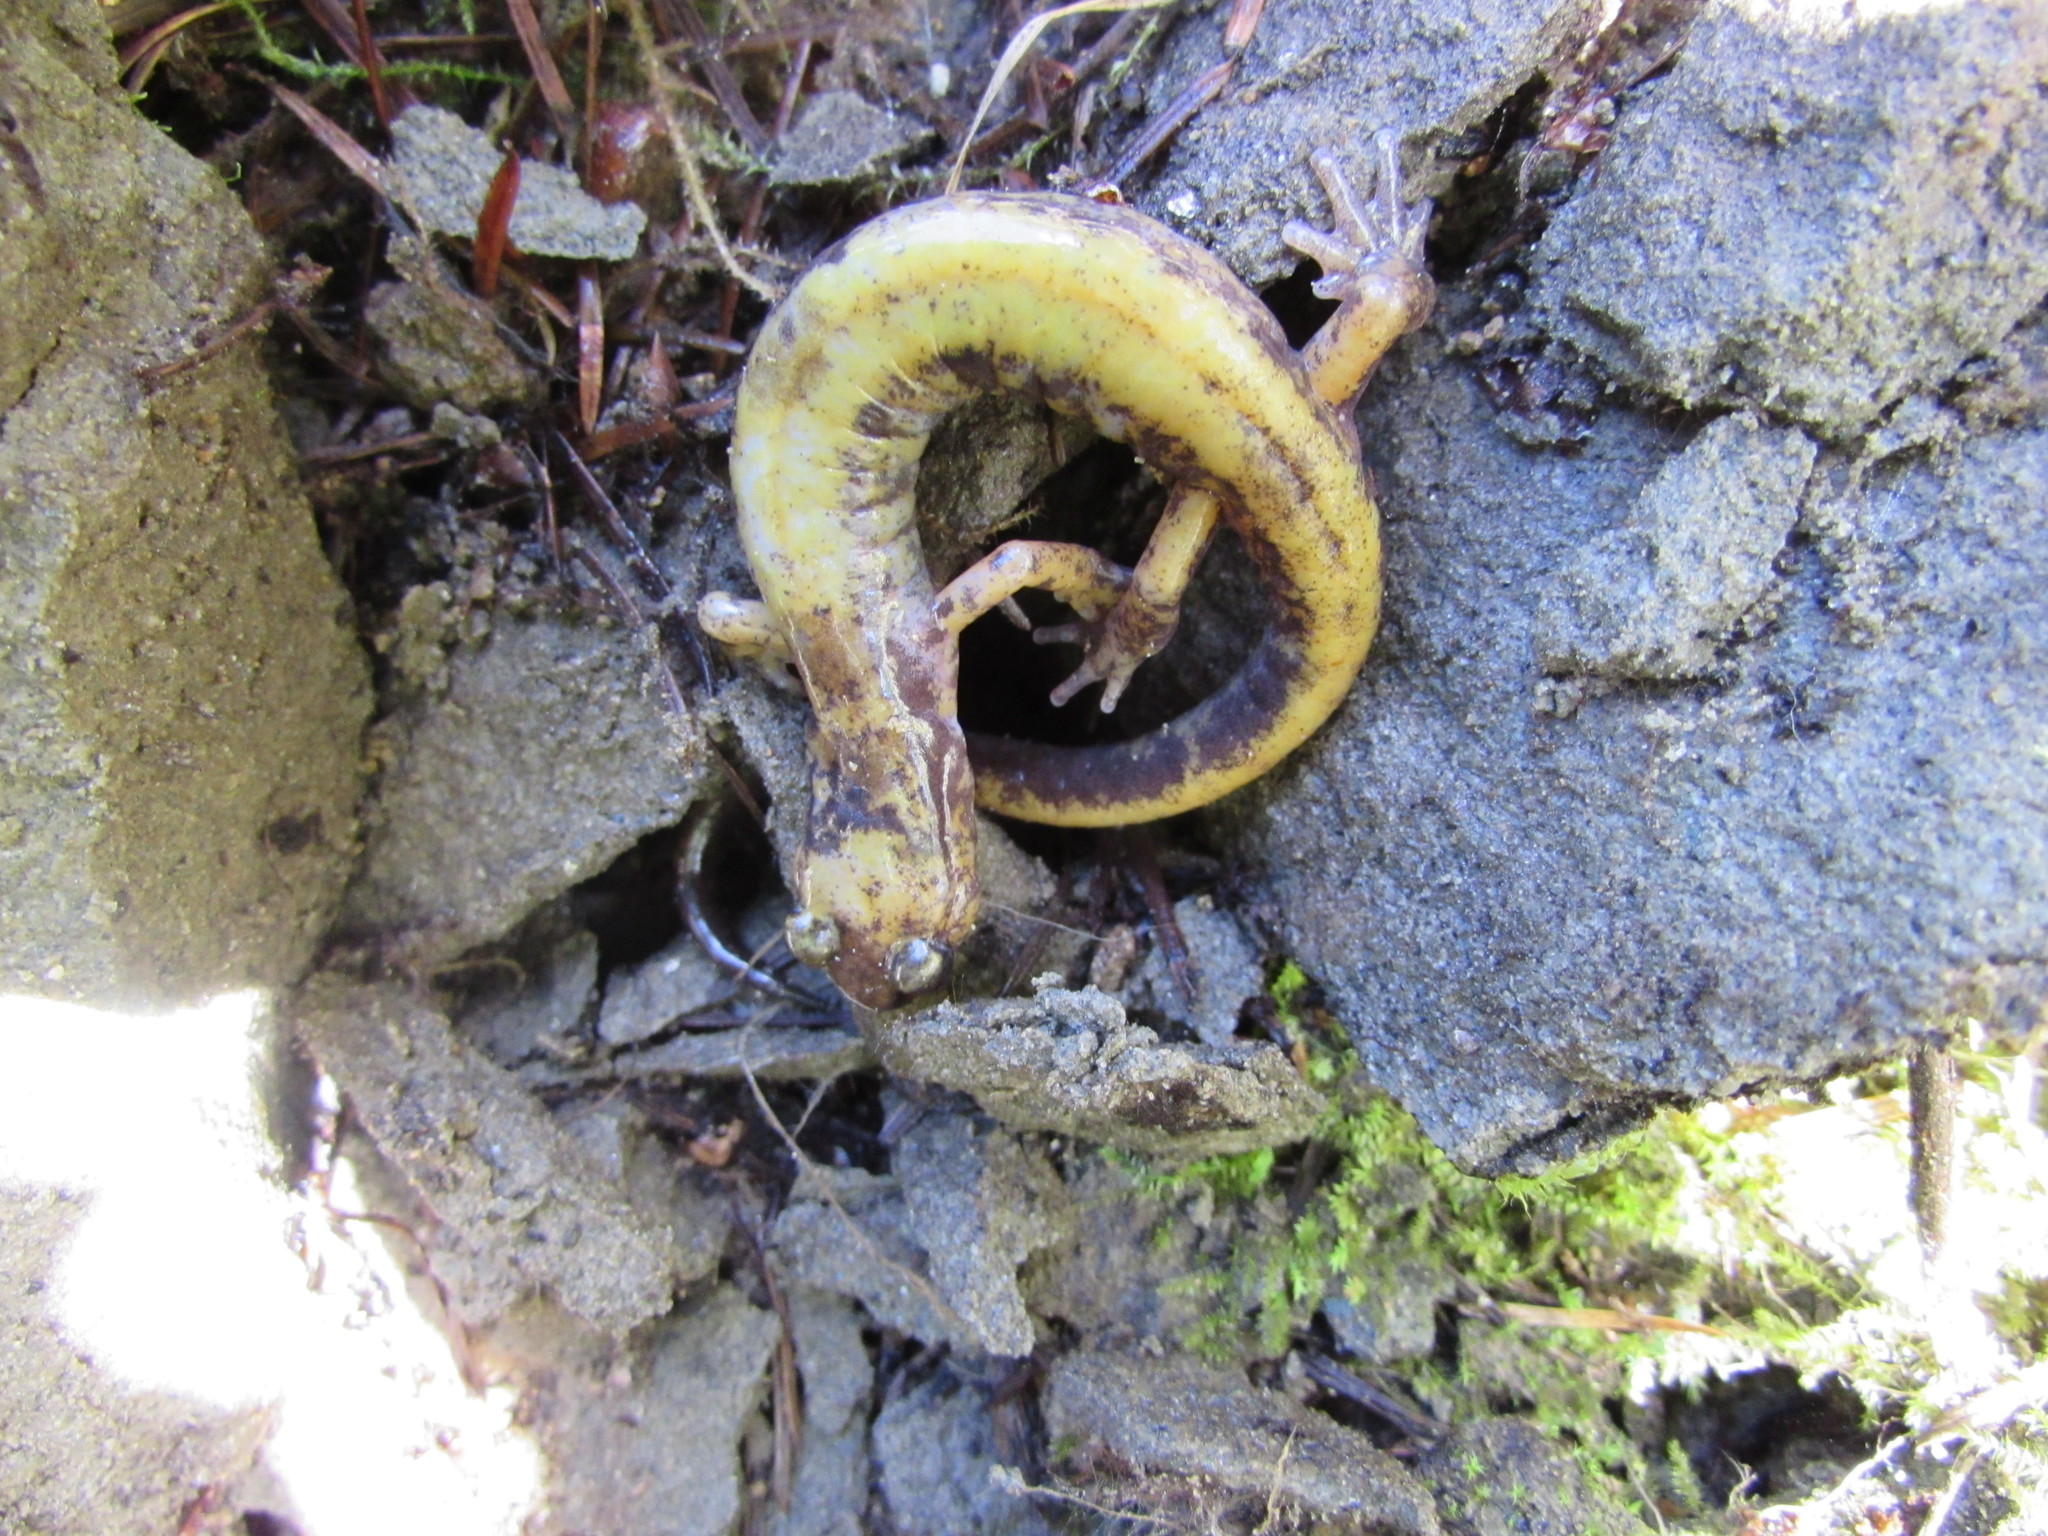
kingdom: Animalia
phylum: Chordata
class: Amphibia
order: Caudata
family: Plethodontidae
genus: Plethodon
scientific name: Plethodon dunni
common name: Dunn's salamander
